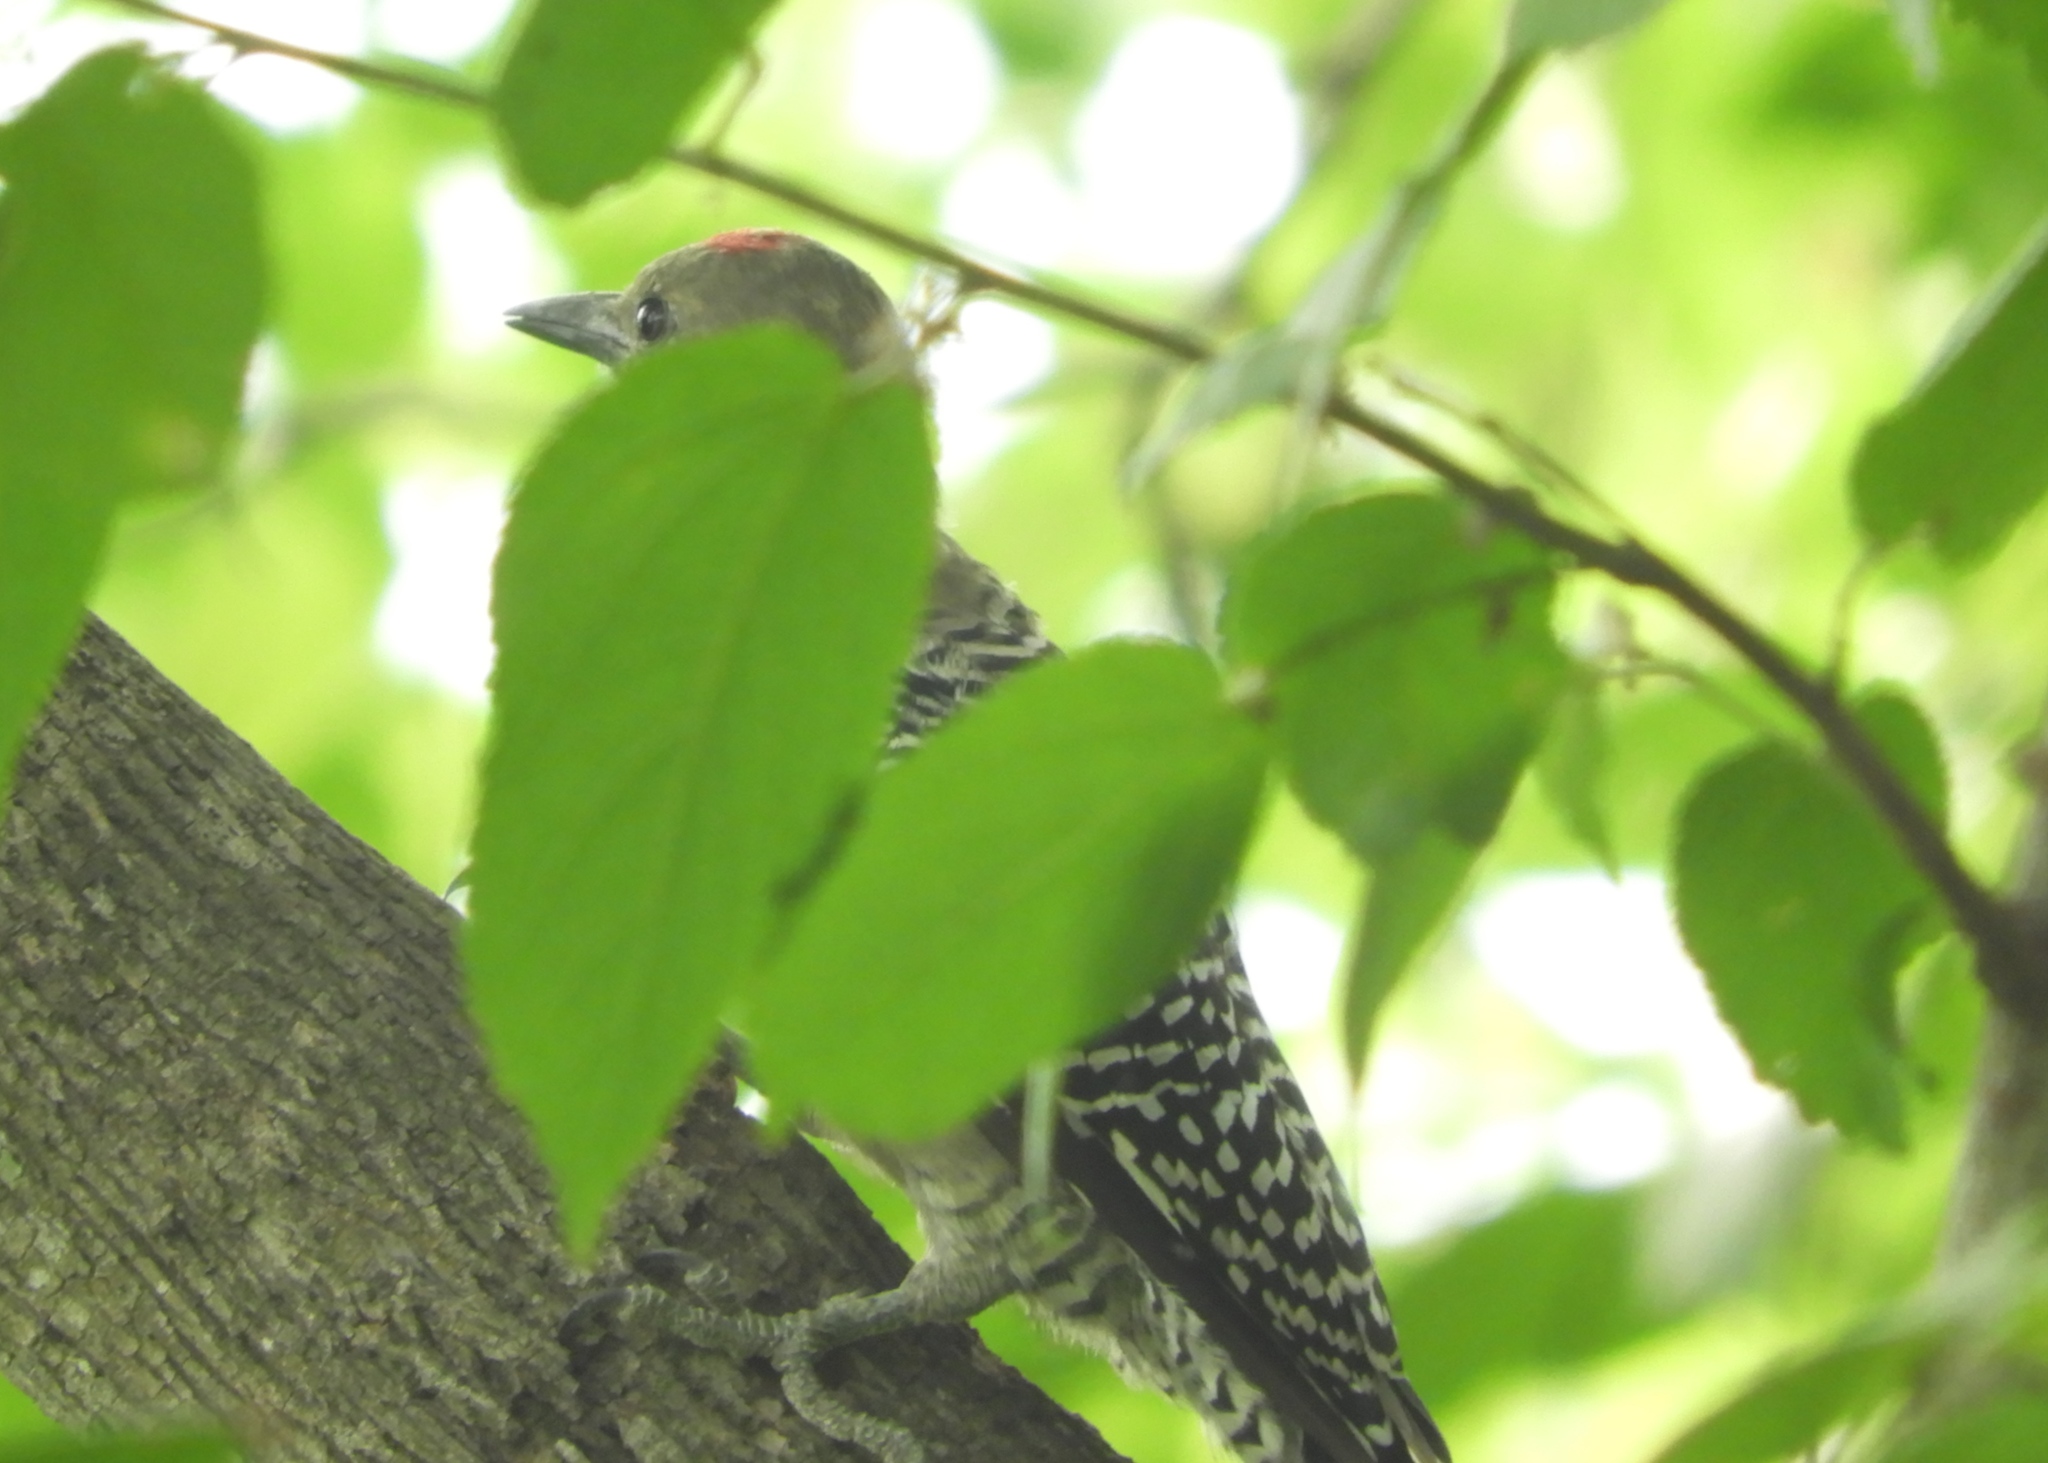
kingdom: Animalia
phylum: Chordata
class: Aves
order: Piciformes
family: Picidae
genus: Melanerpes
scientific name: Melanerpes uropygialis
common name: Gila woodpecker
